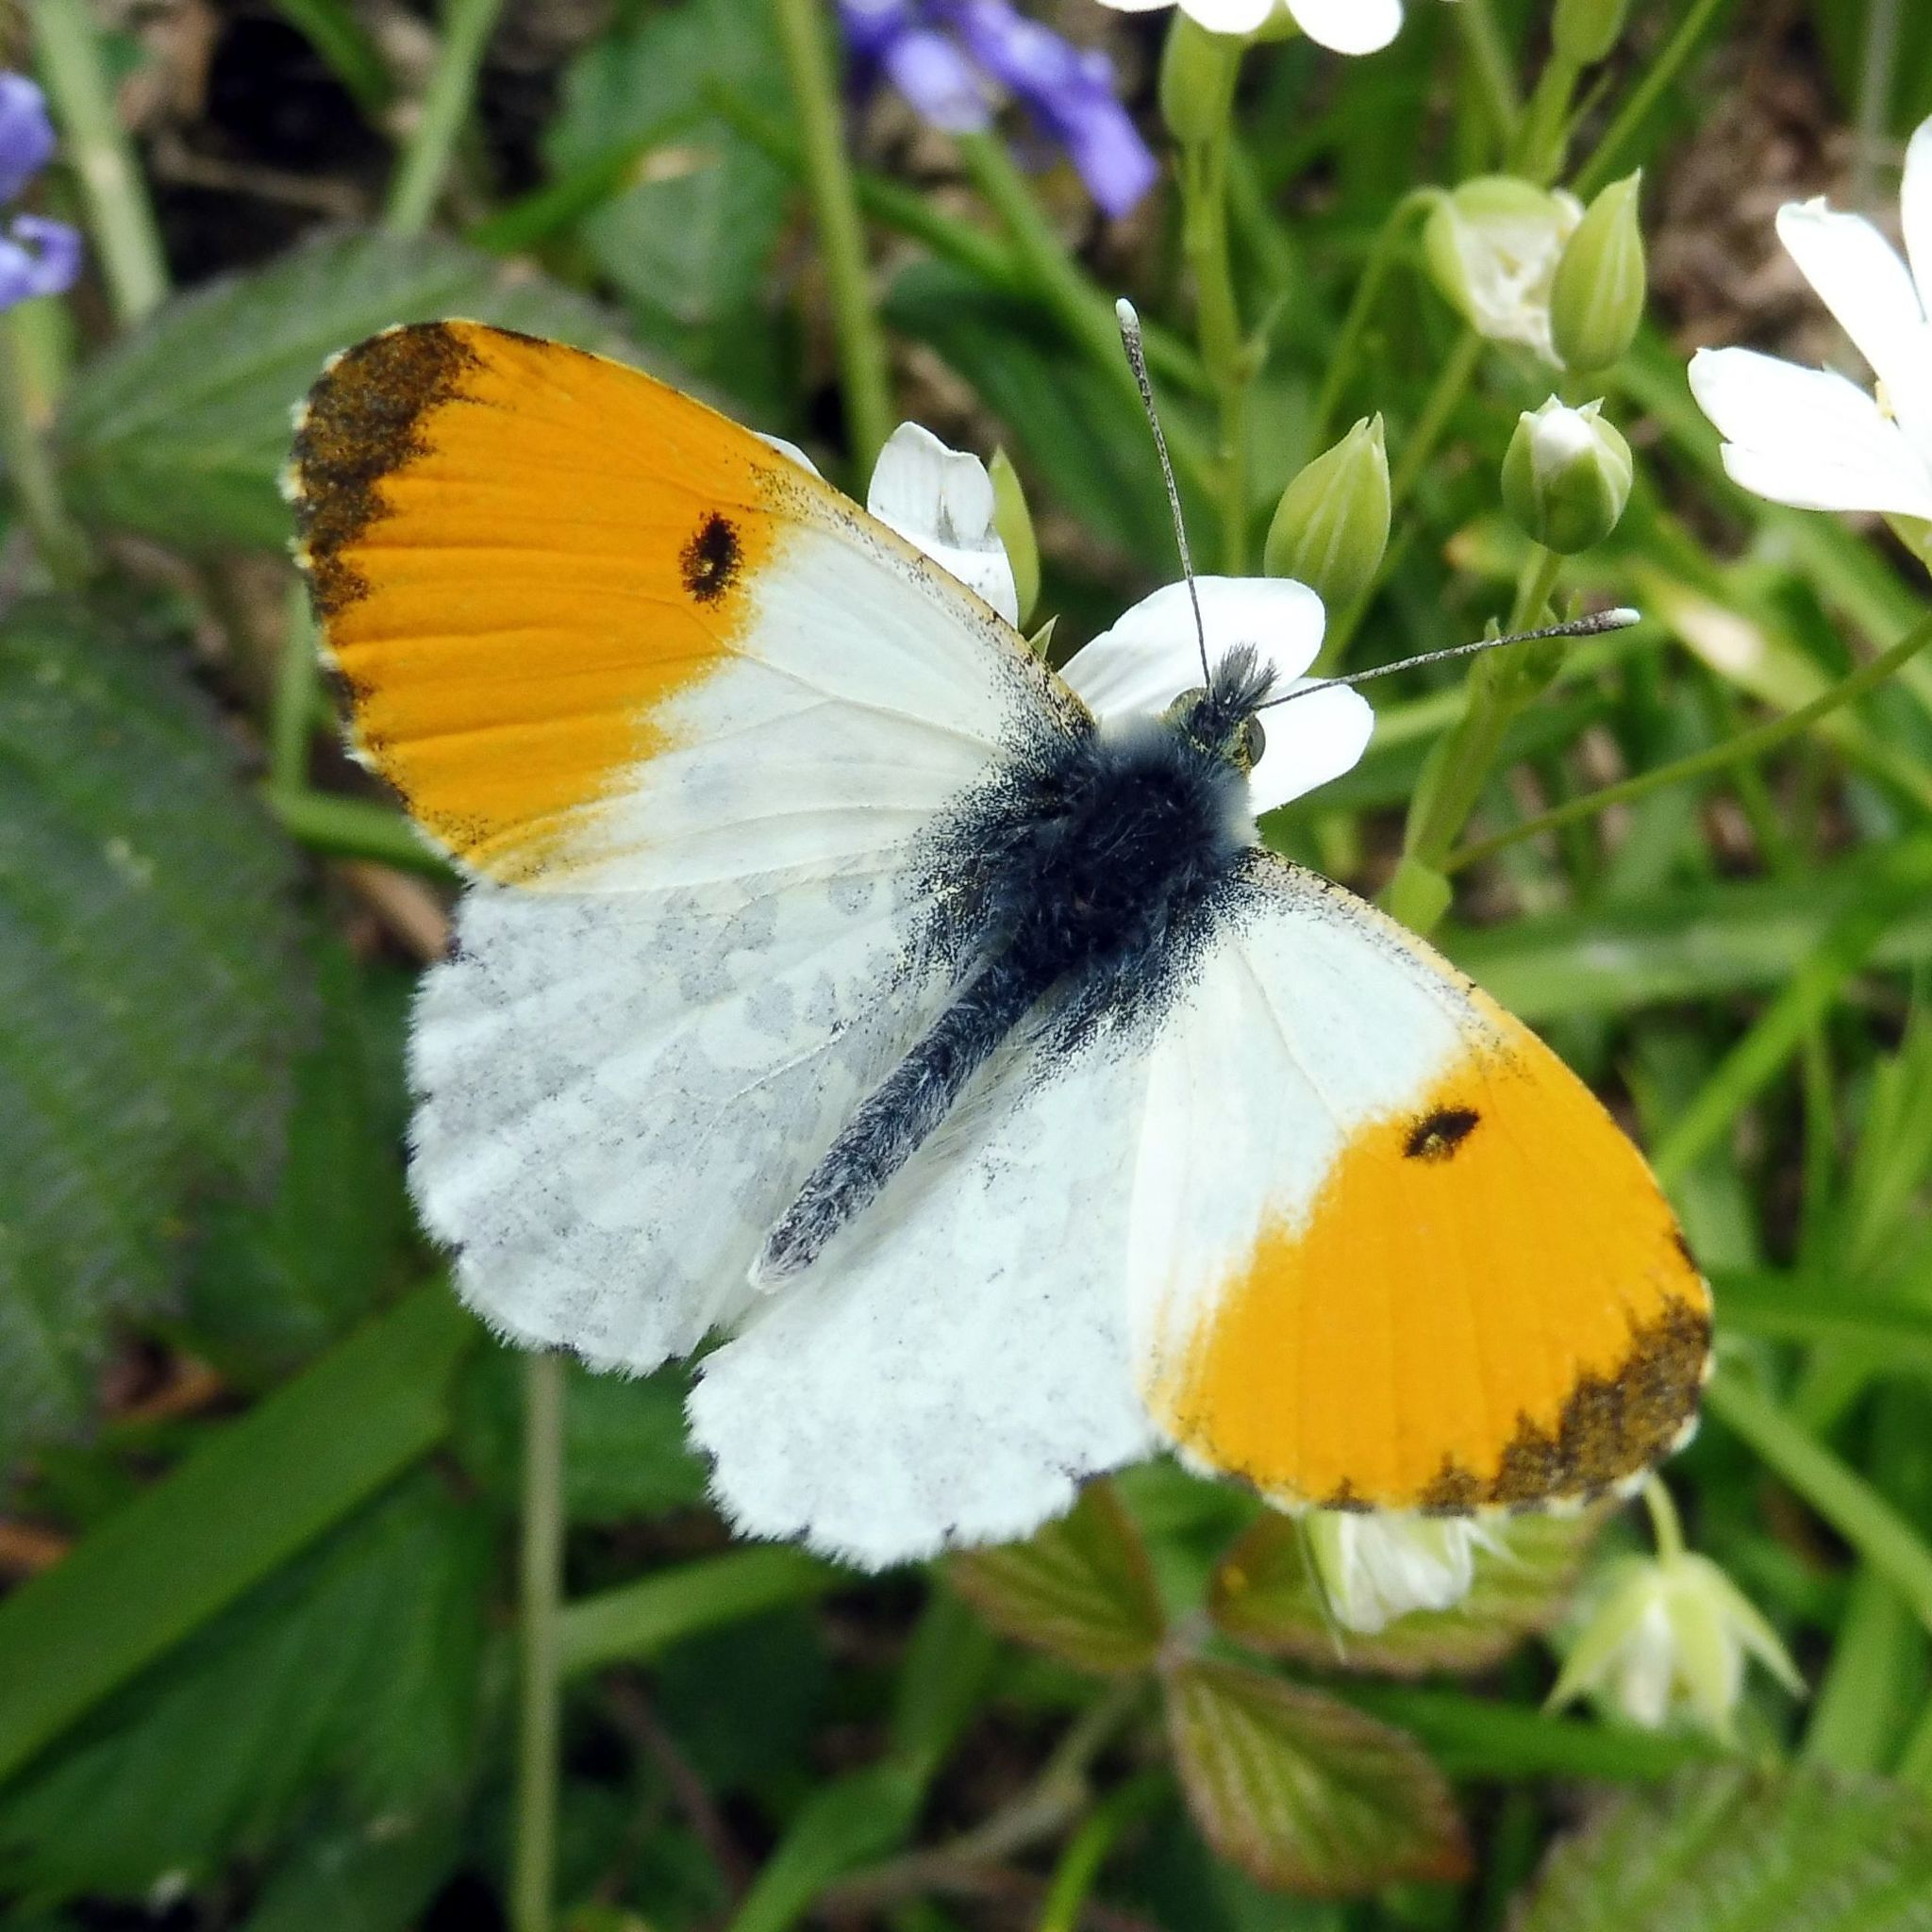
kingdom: Animalia
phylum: Arthropoda
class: Insecta
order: Lepidoptera
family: Pieridae
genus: Anthocharis
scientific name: Anthocharis cardamines
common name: Orange-tip
